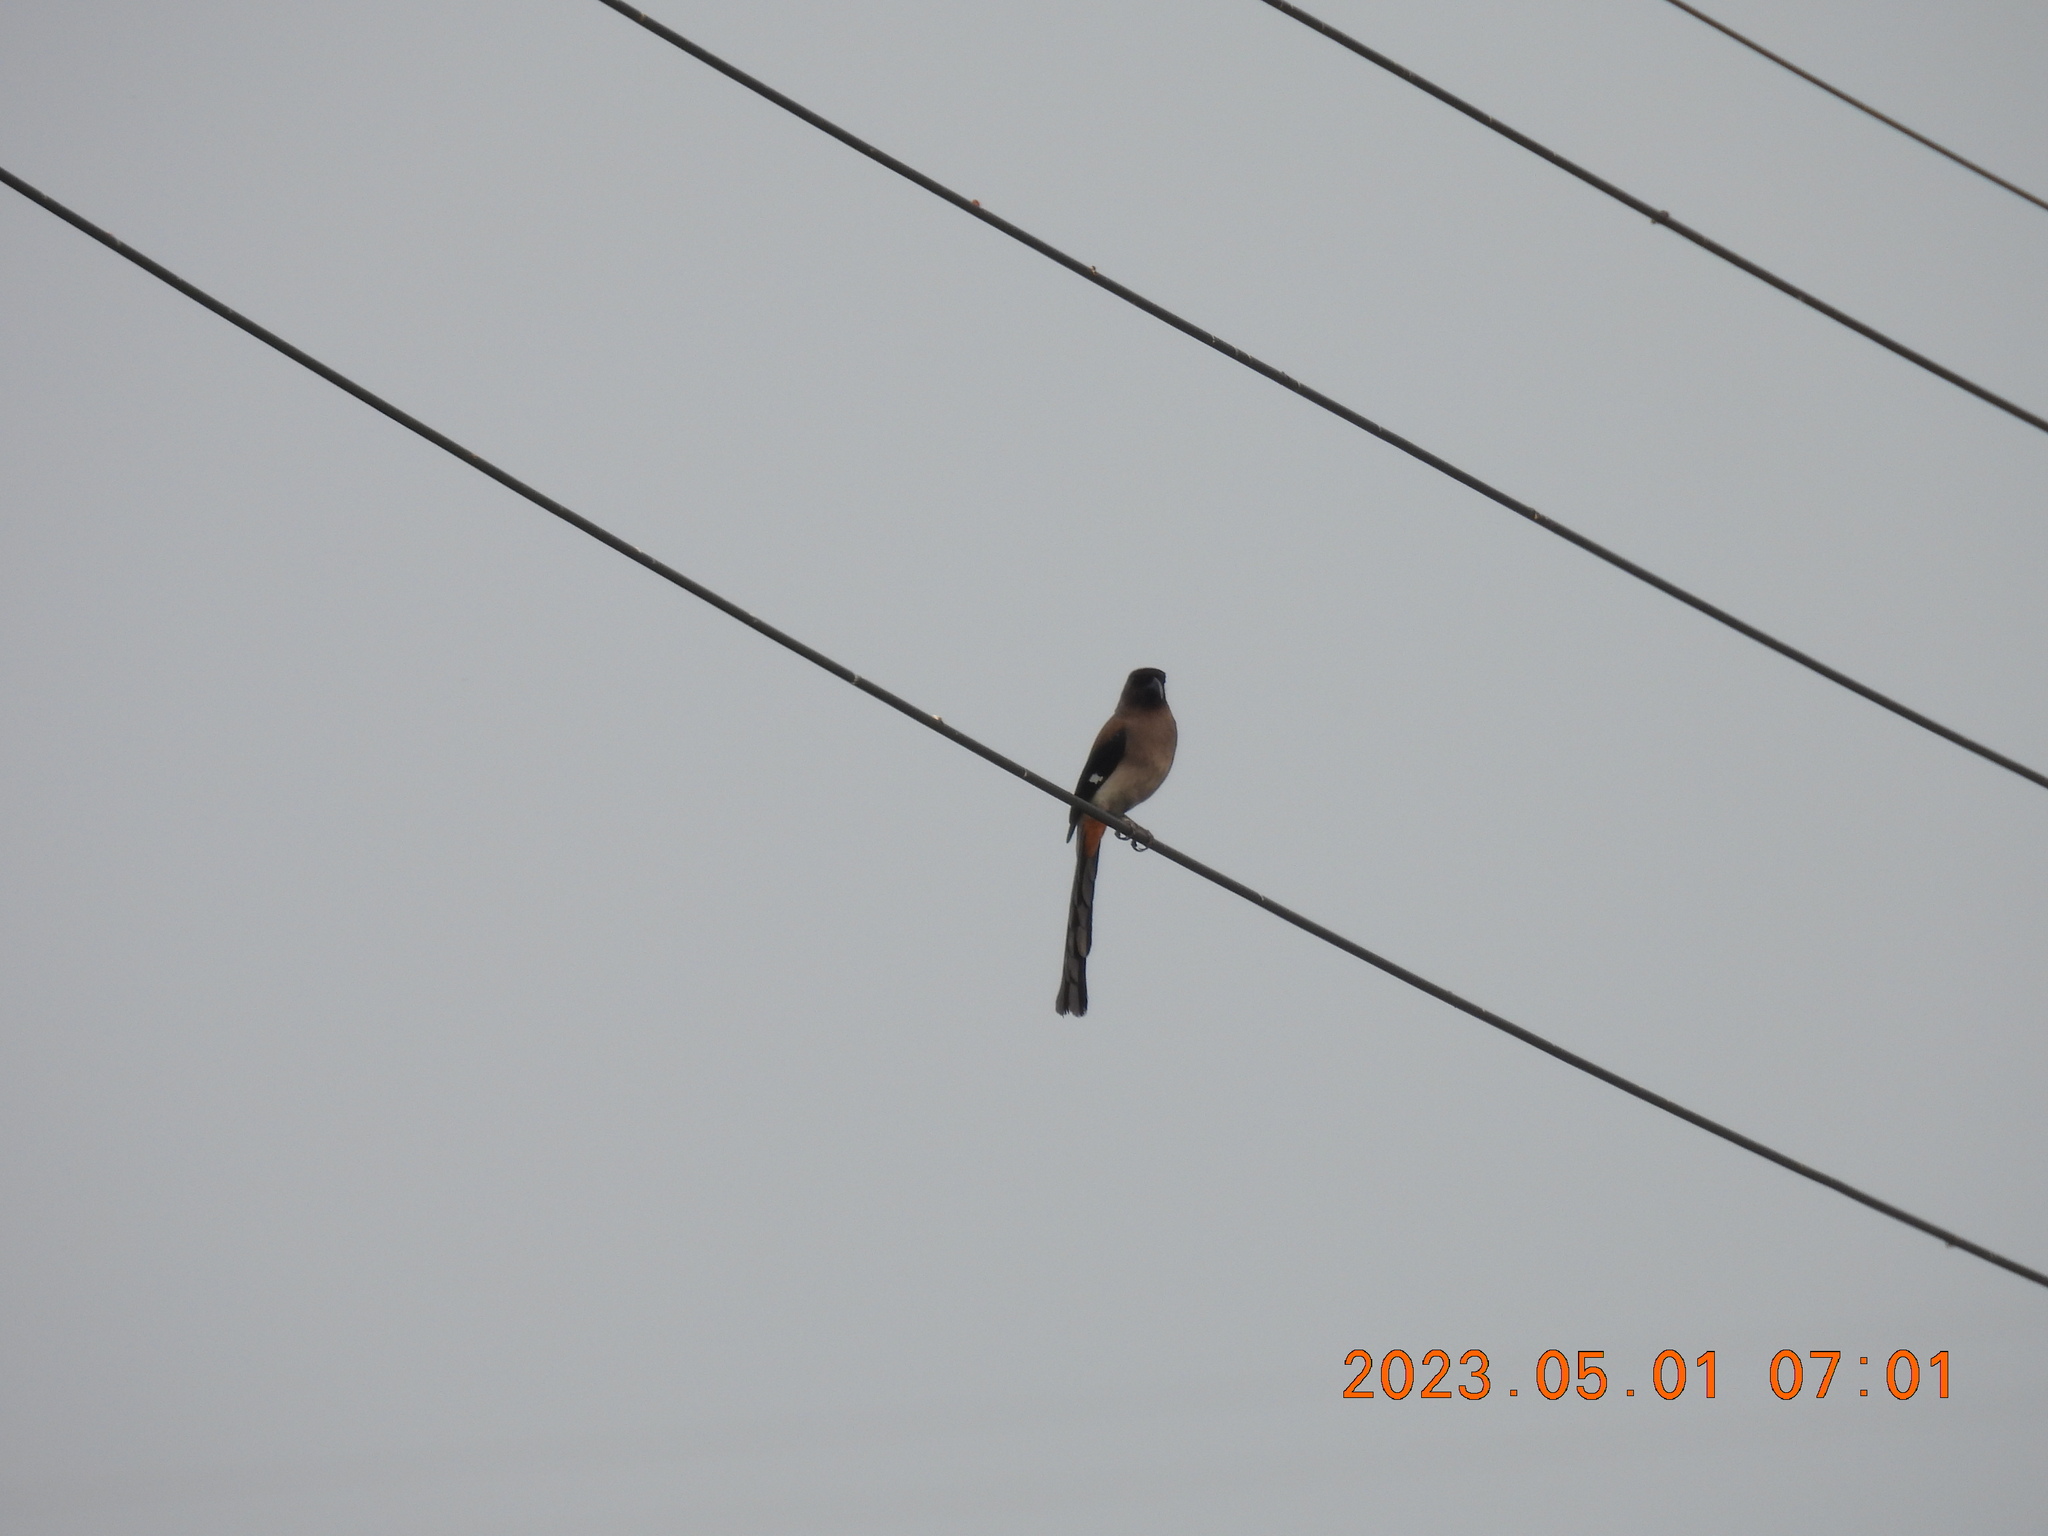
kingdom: Animalia
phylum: Chordata
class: Aves
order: Passeriformes
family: Corvidae
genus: Dendrocitta
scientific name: Dendrocitta formosae
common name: Grey treepie
